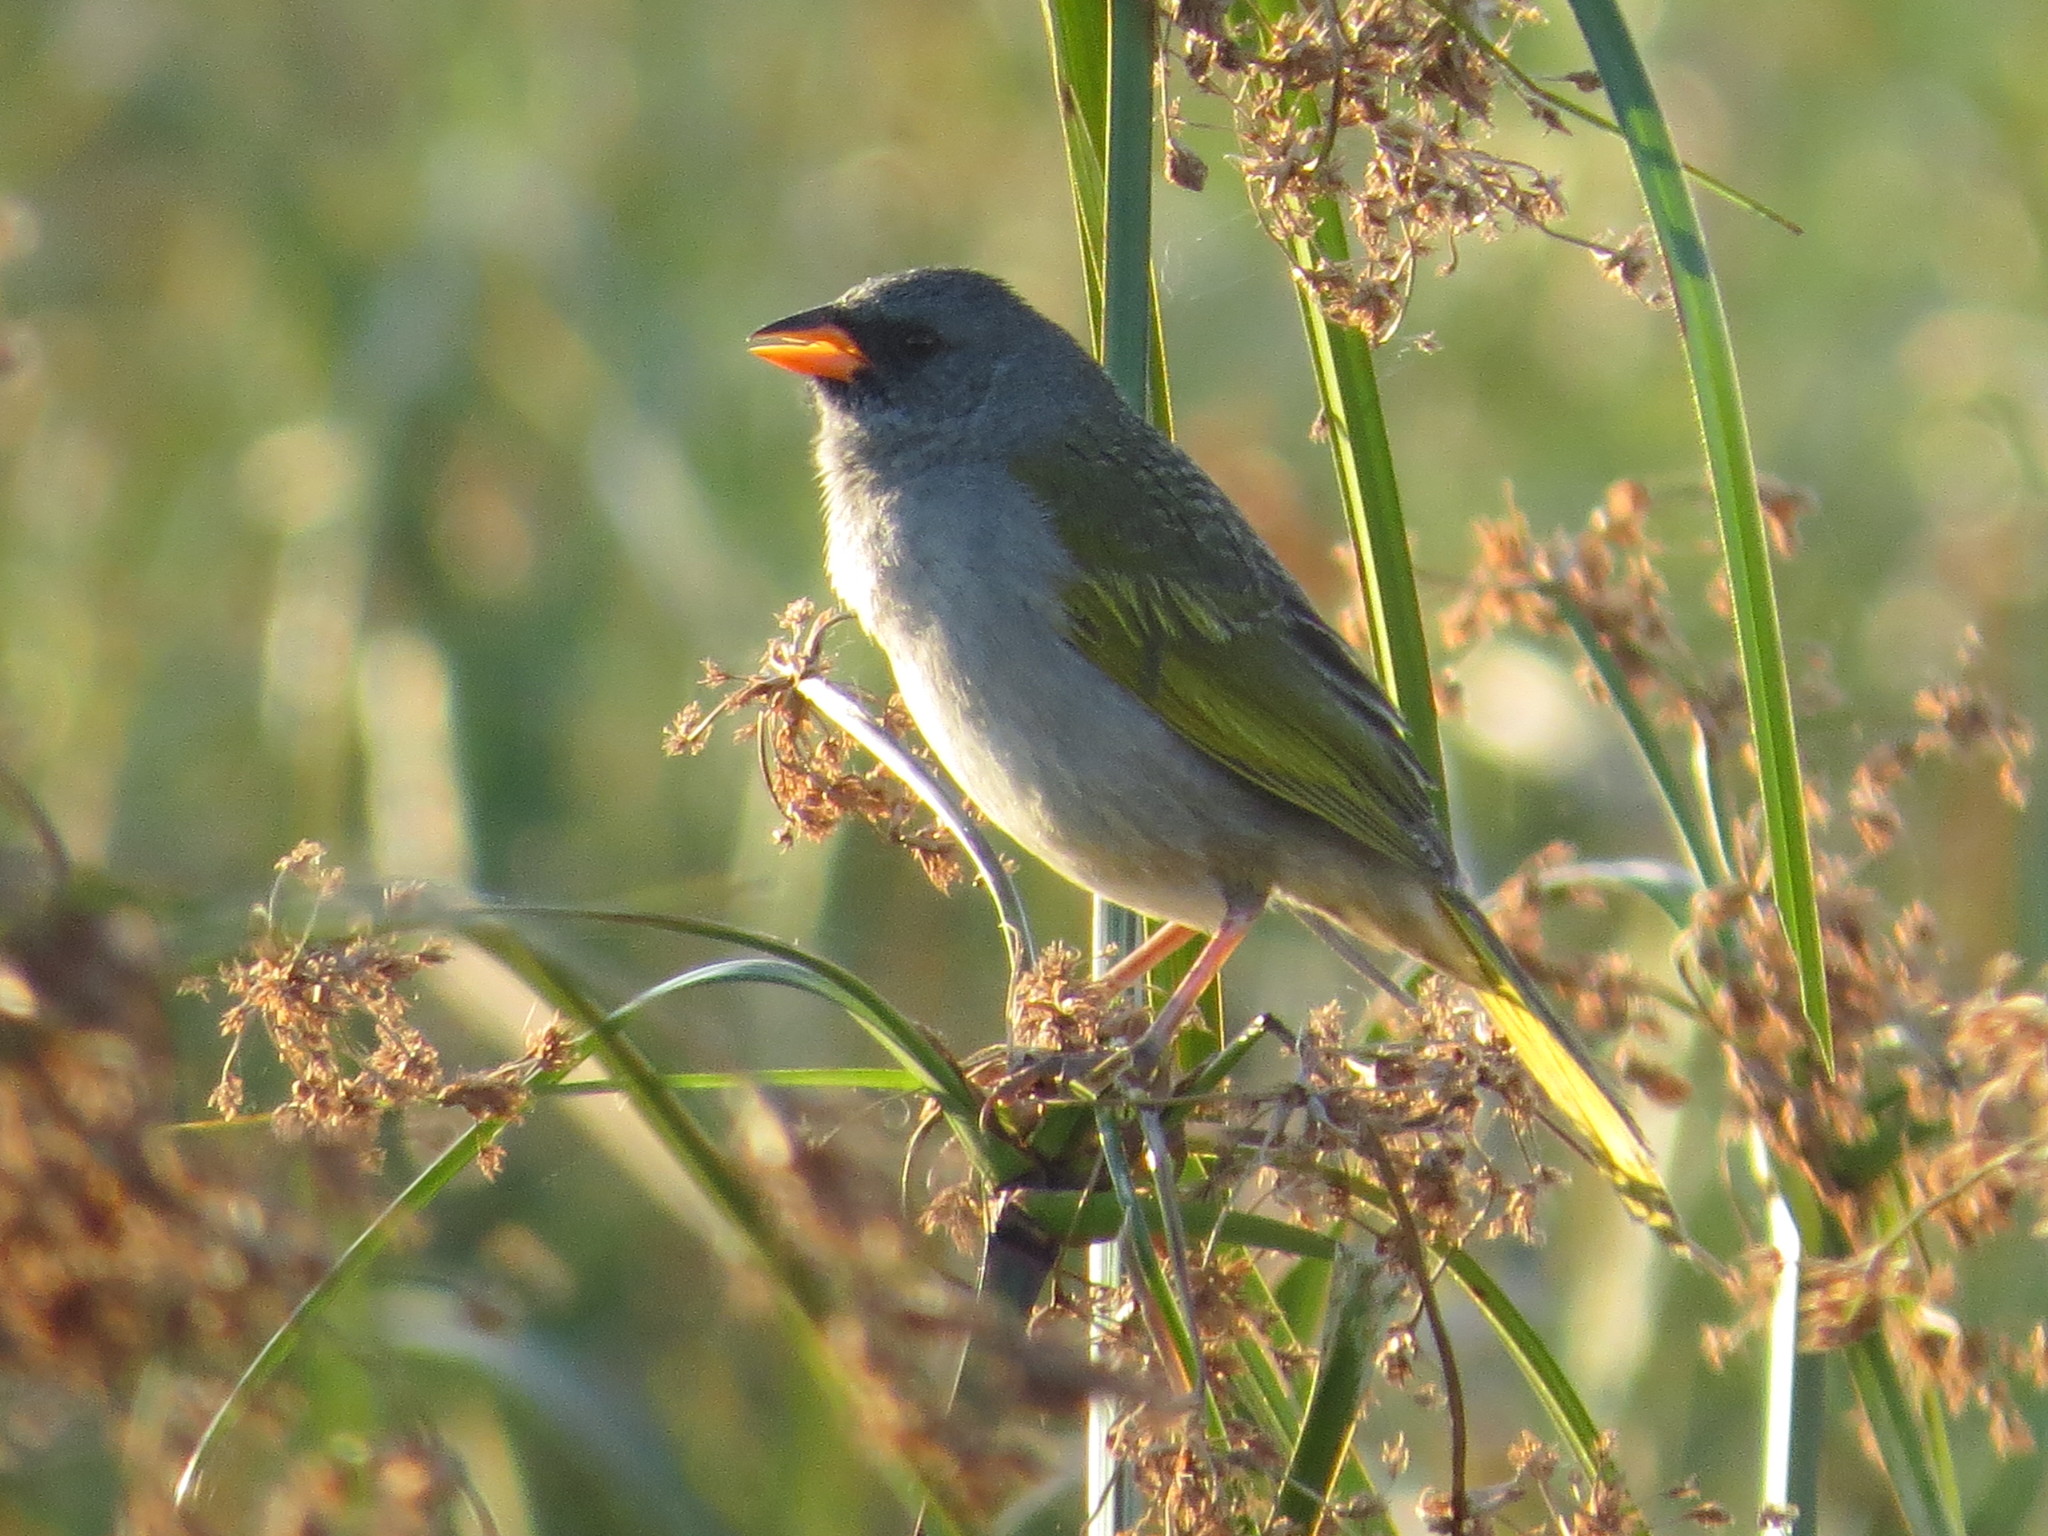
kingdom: Animalia
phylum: Chordata
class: Aves
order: Passeriformes
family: Thraupidae
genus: Embernagra
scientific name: Embernagra platensis
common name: Pampa finch
